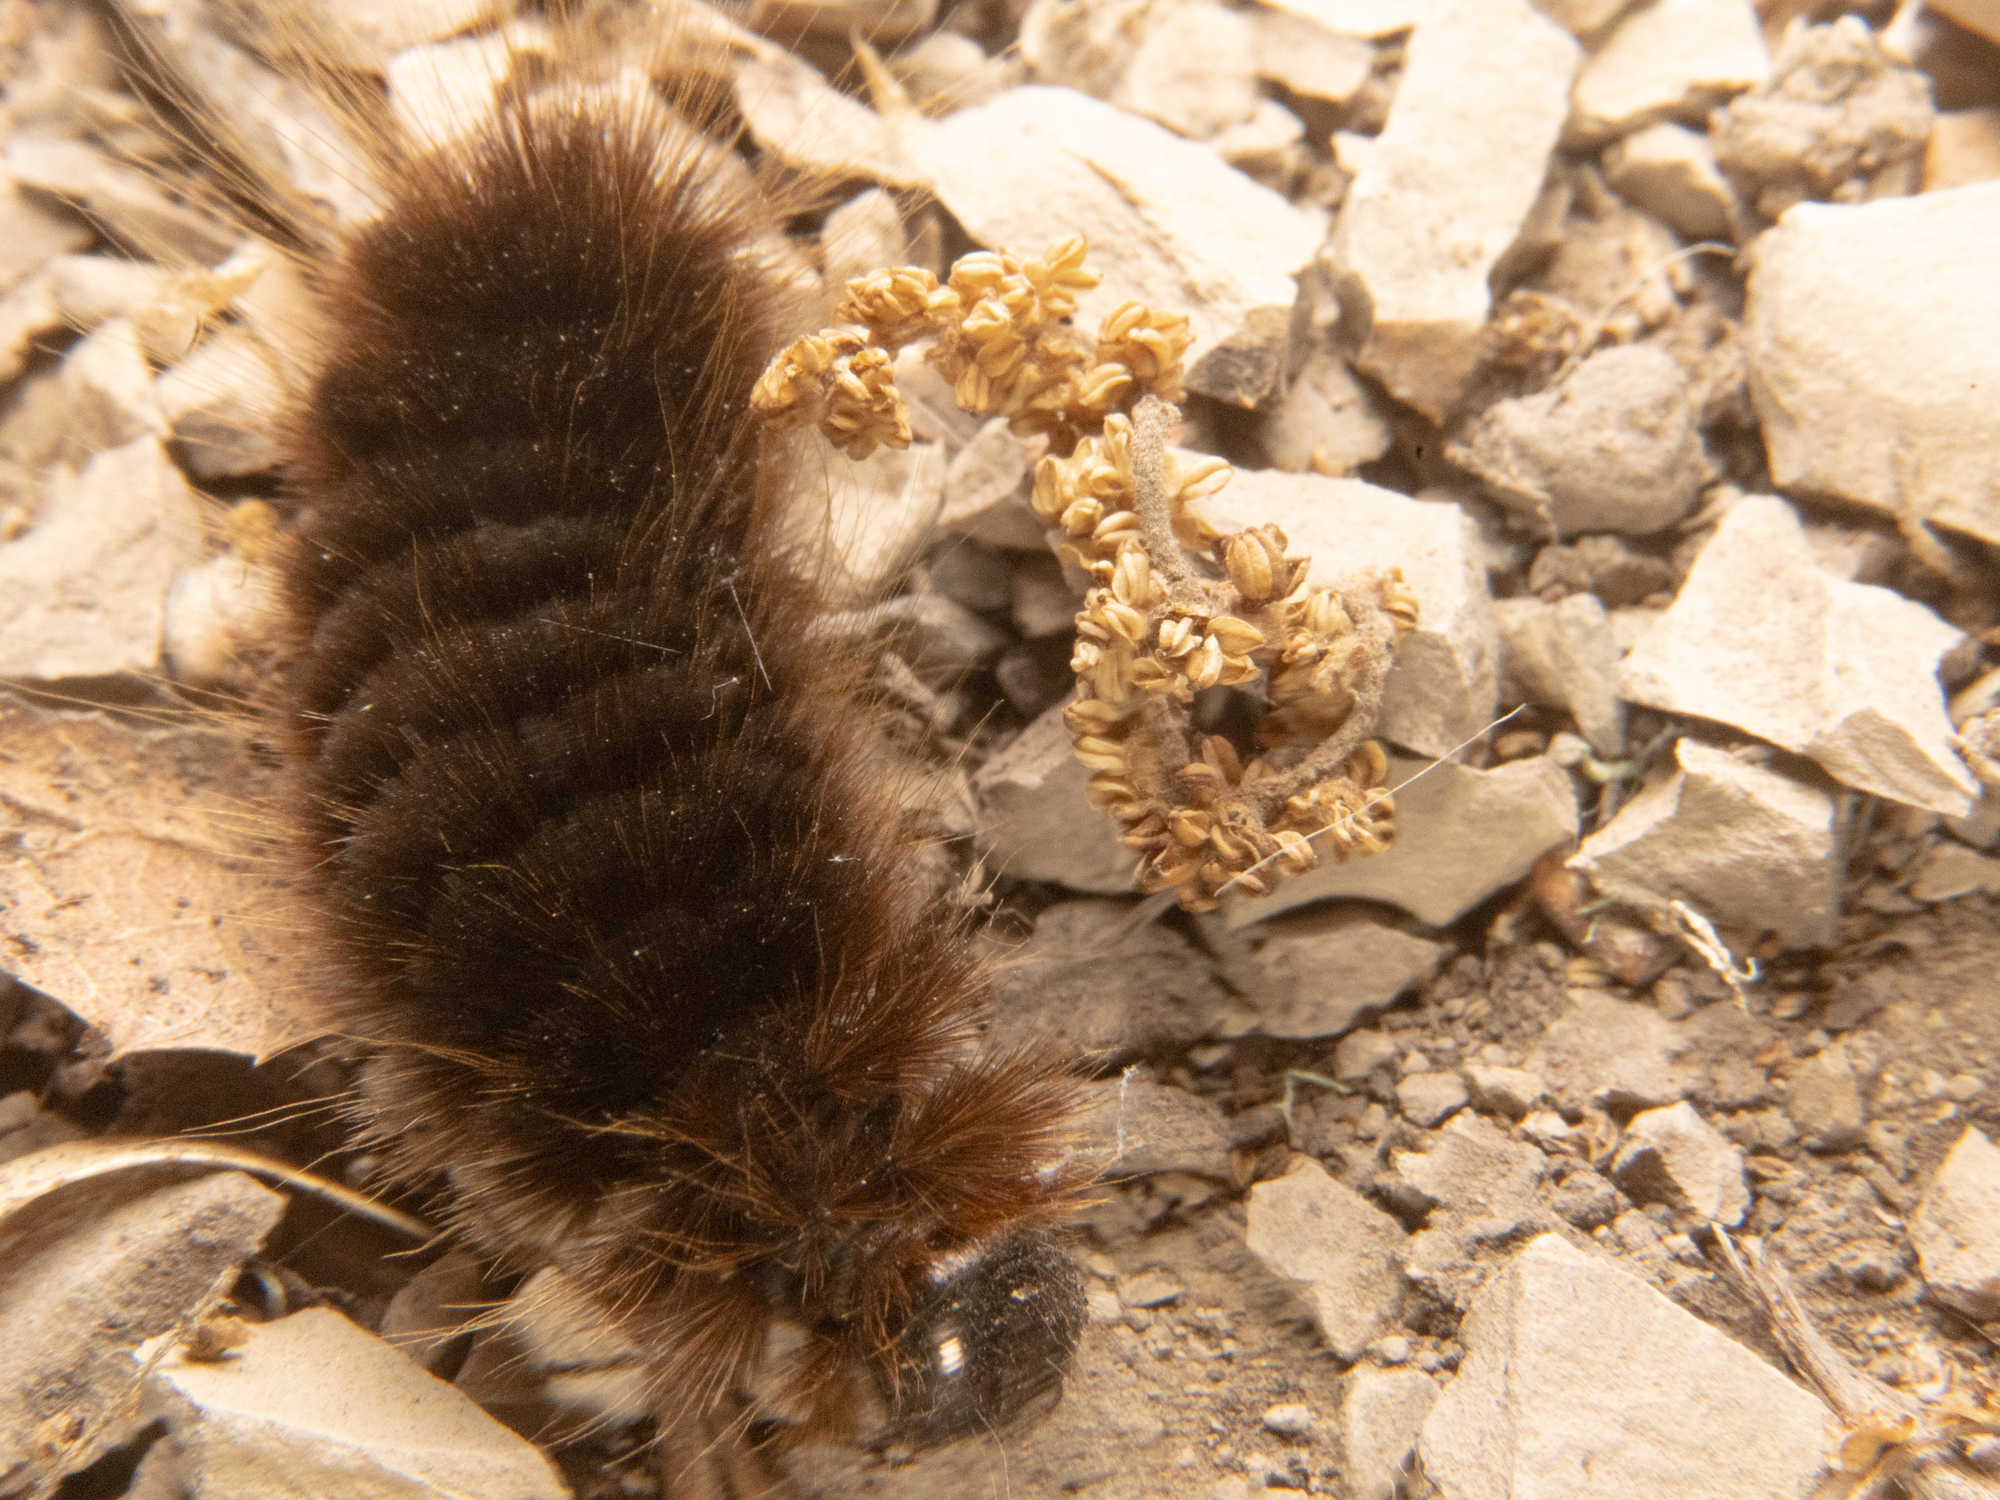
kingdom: Animalia
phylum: Arthropoda
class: Insecta
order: Lepidoptera
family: Erebidae
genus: Hemihyalea
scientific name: Hemihyalea edwardsii
